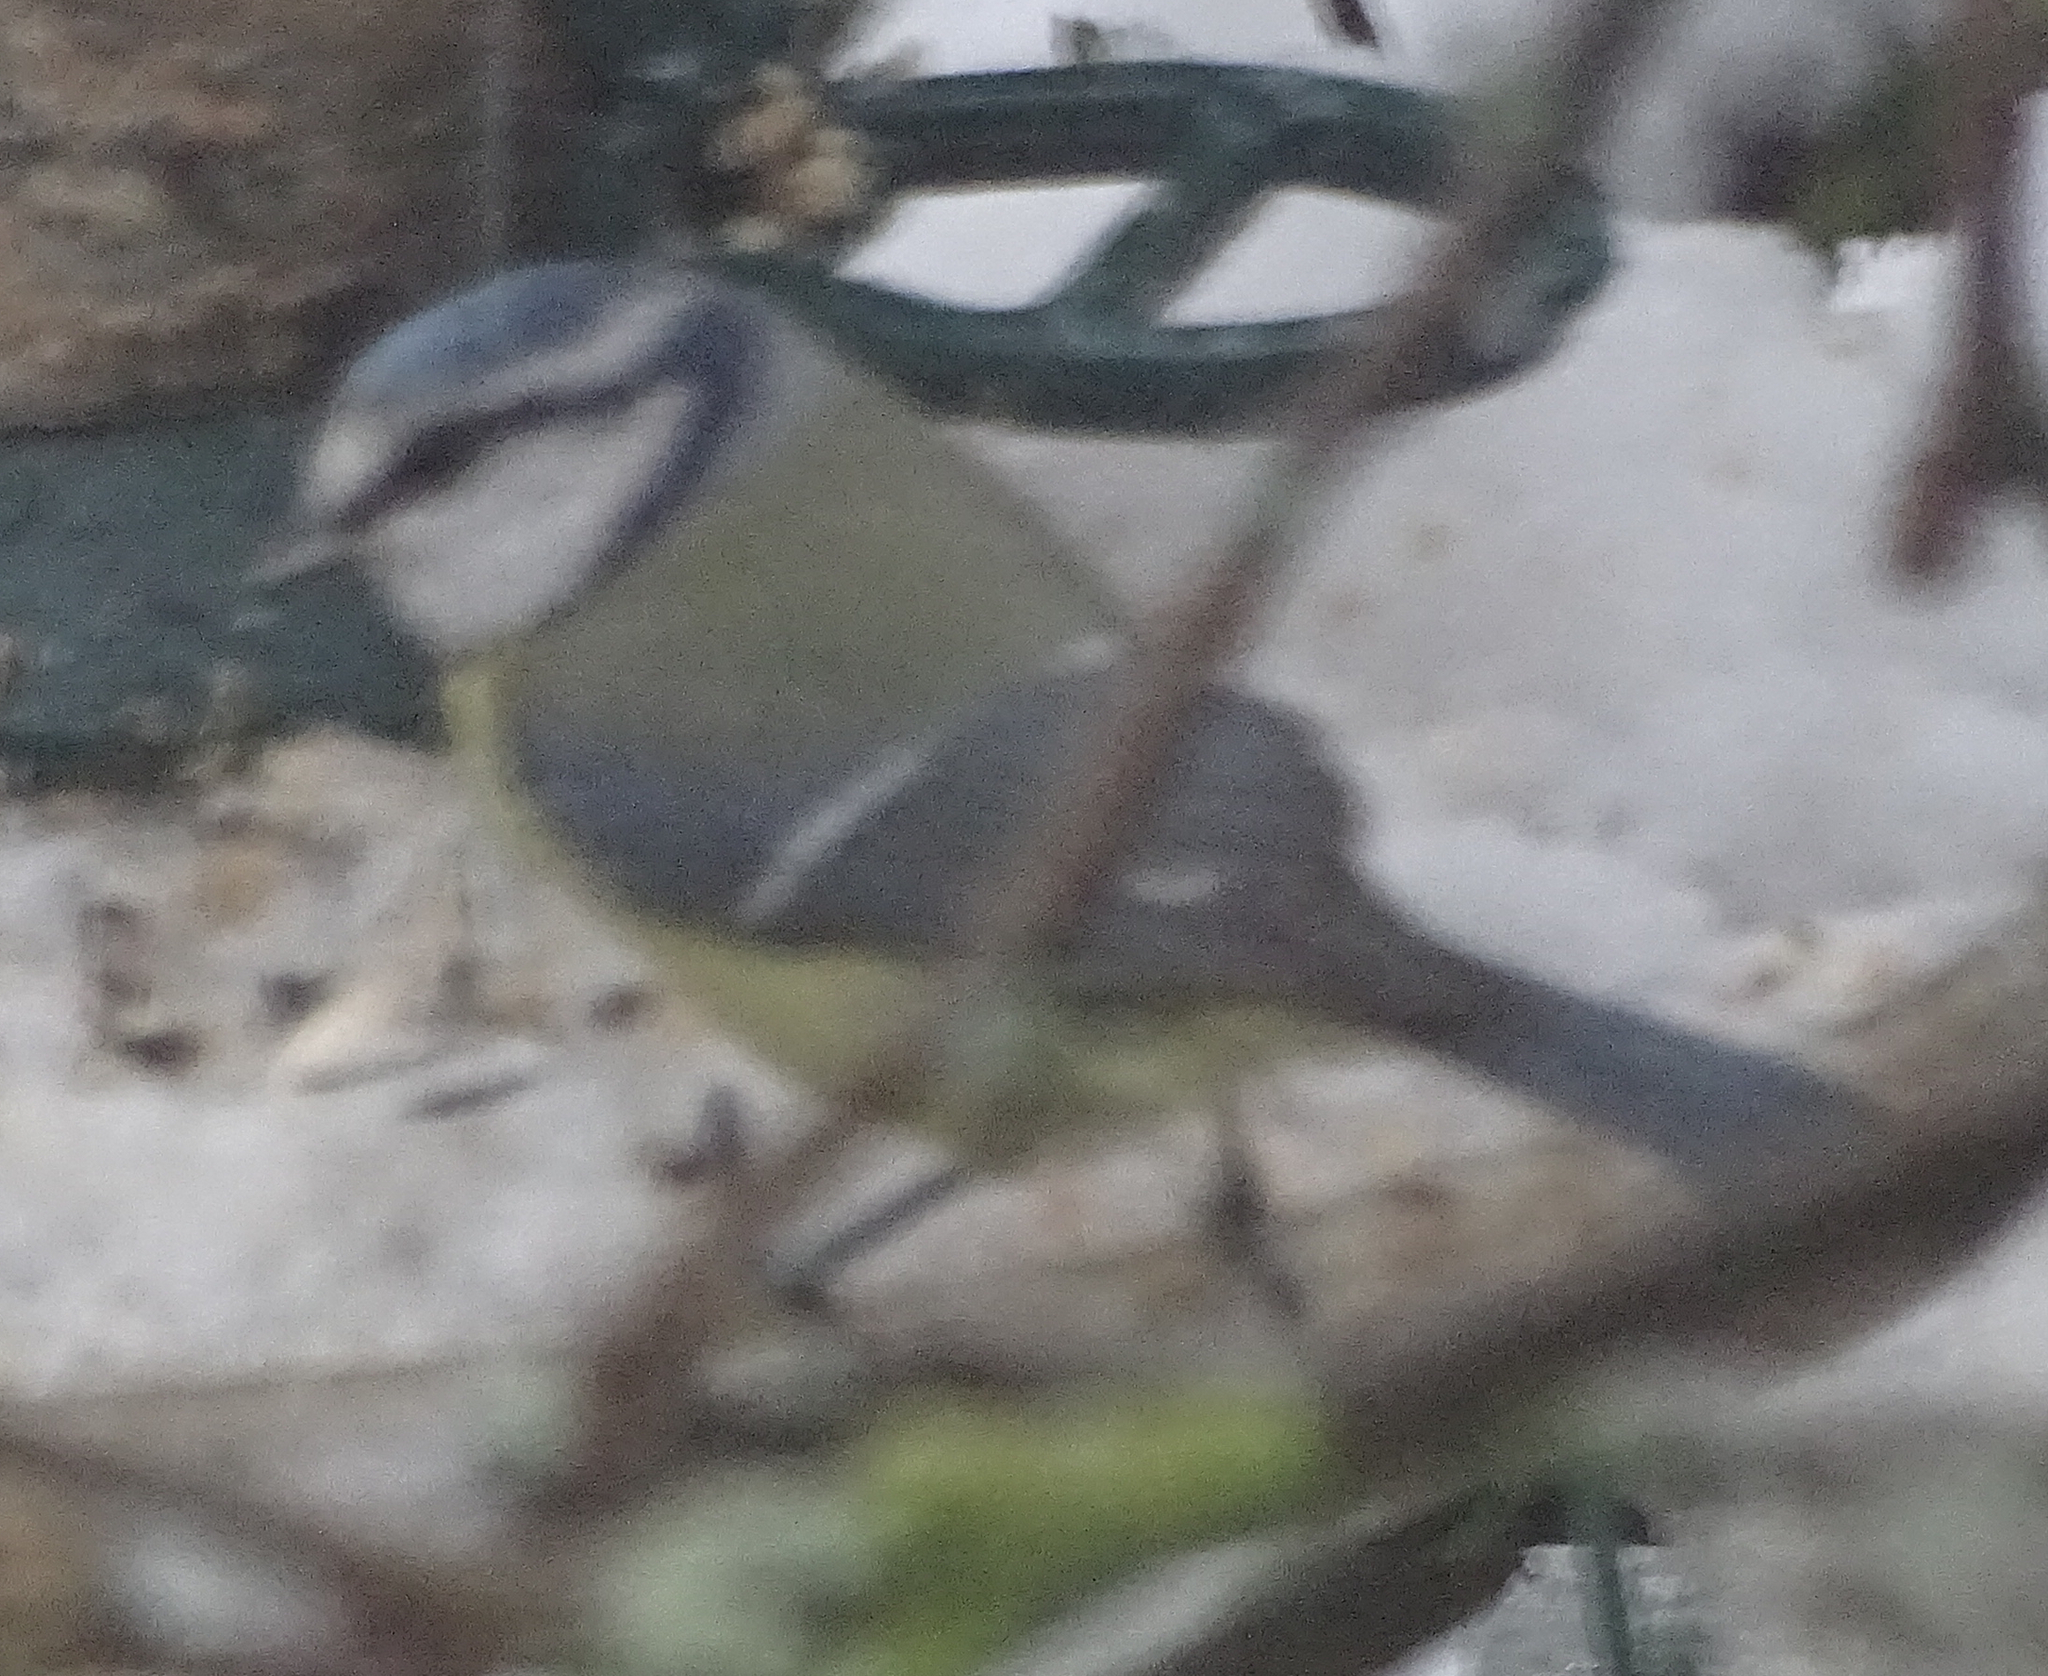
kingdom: Animalia
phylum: Chordata
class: Aves
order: Passeriformes
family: Paridae
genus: Cyanistes
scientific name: Cyanistes caeruleus
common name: Eurasian blue tit
